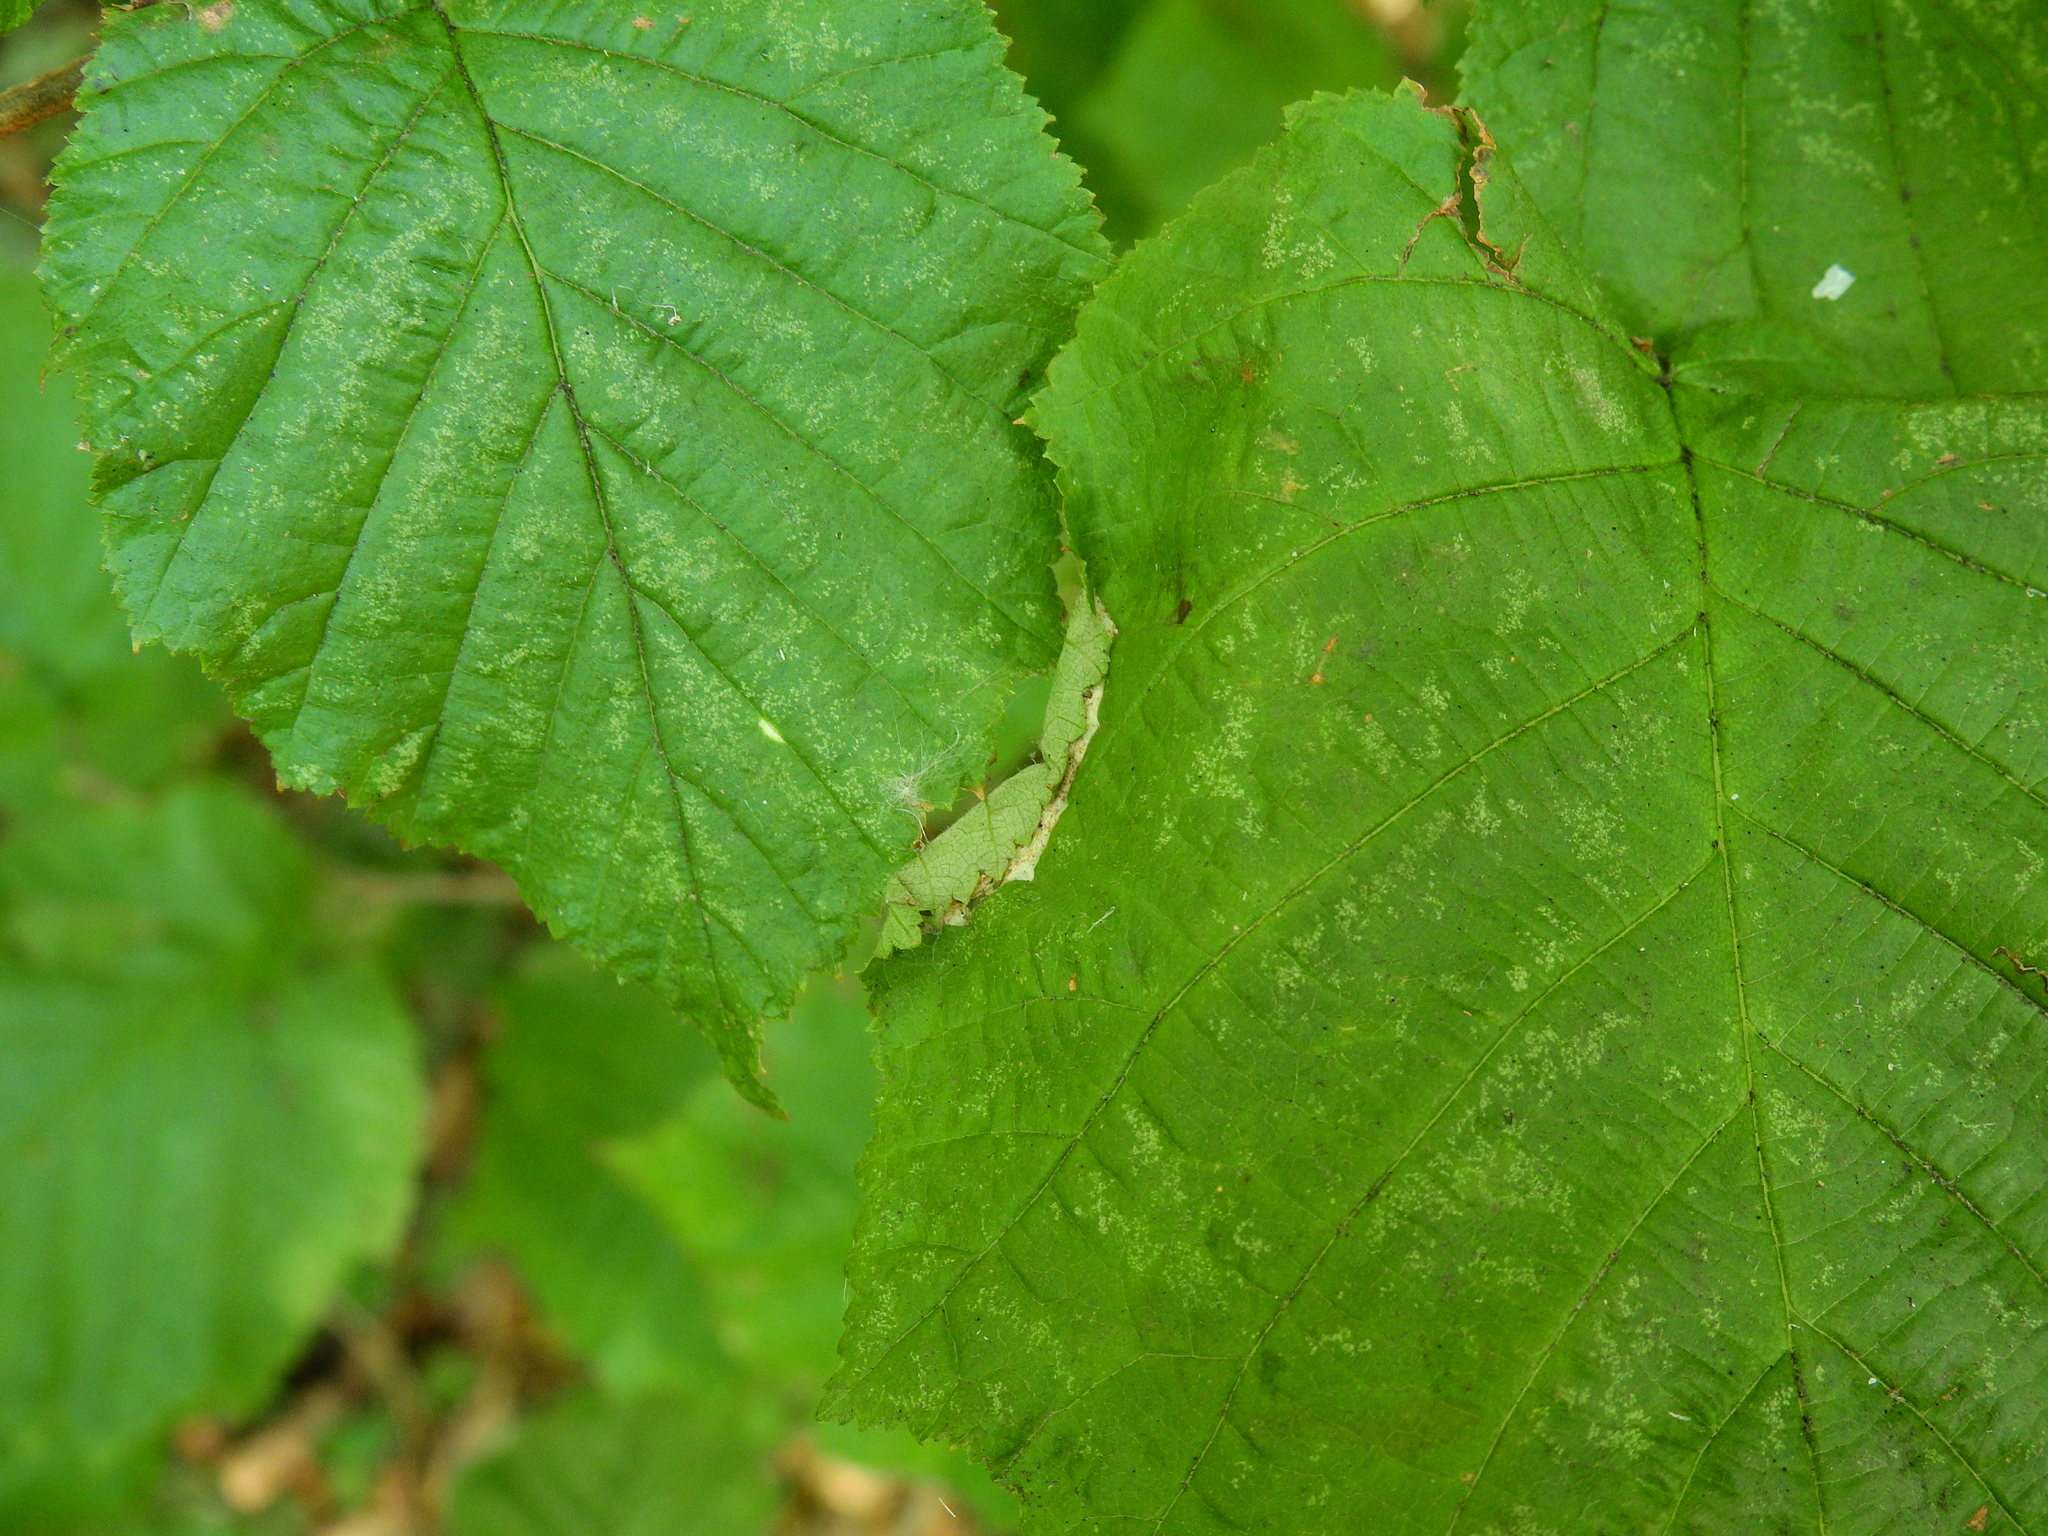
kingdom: Animalia
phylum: Arthropoda
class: Insecta
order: Lepidoptera
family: Gracillariidae
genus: Parornix
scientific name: Parornix devoniella
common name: Hazel slender
